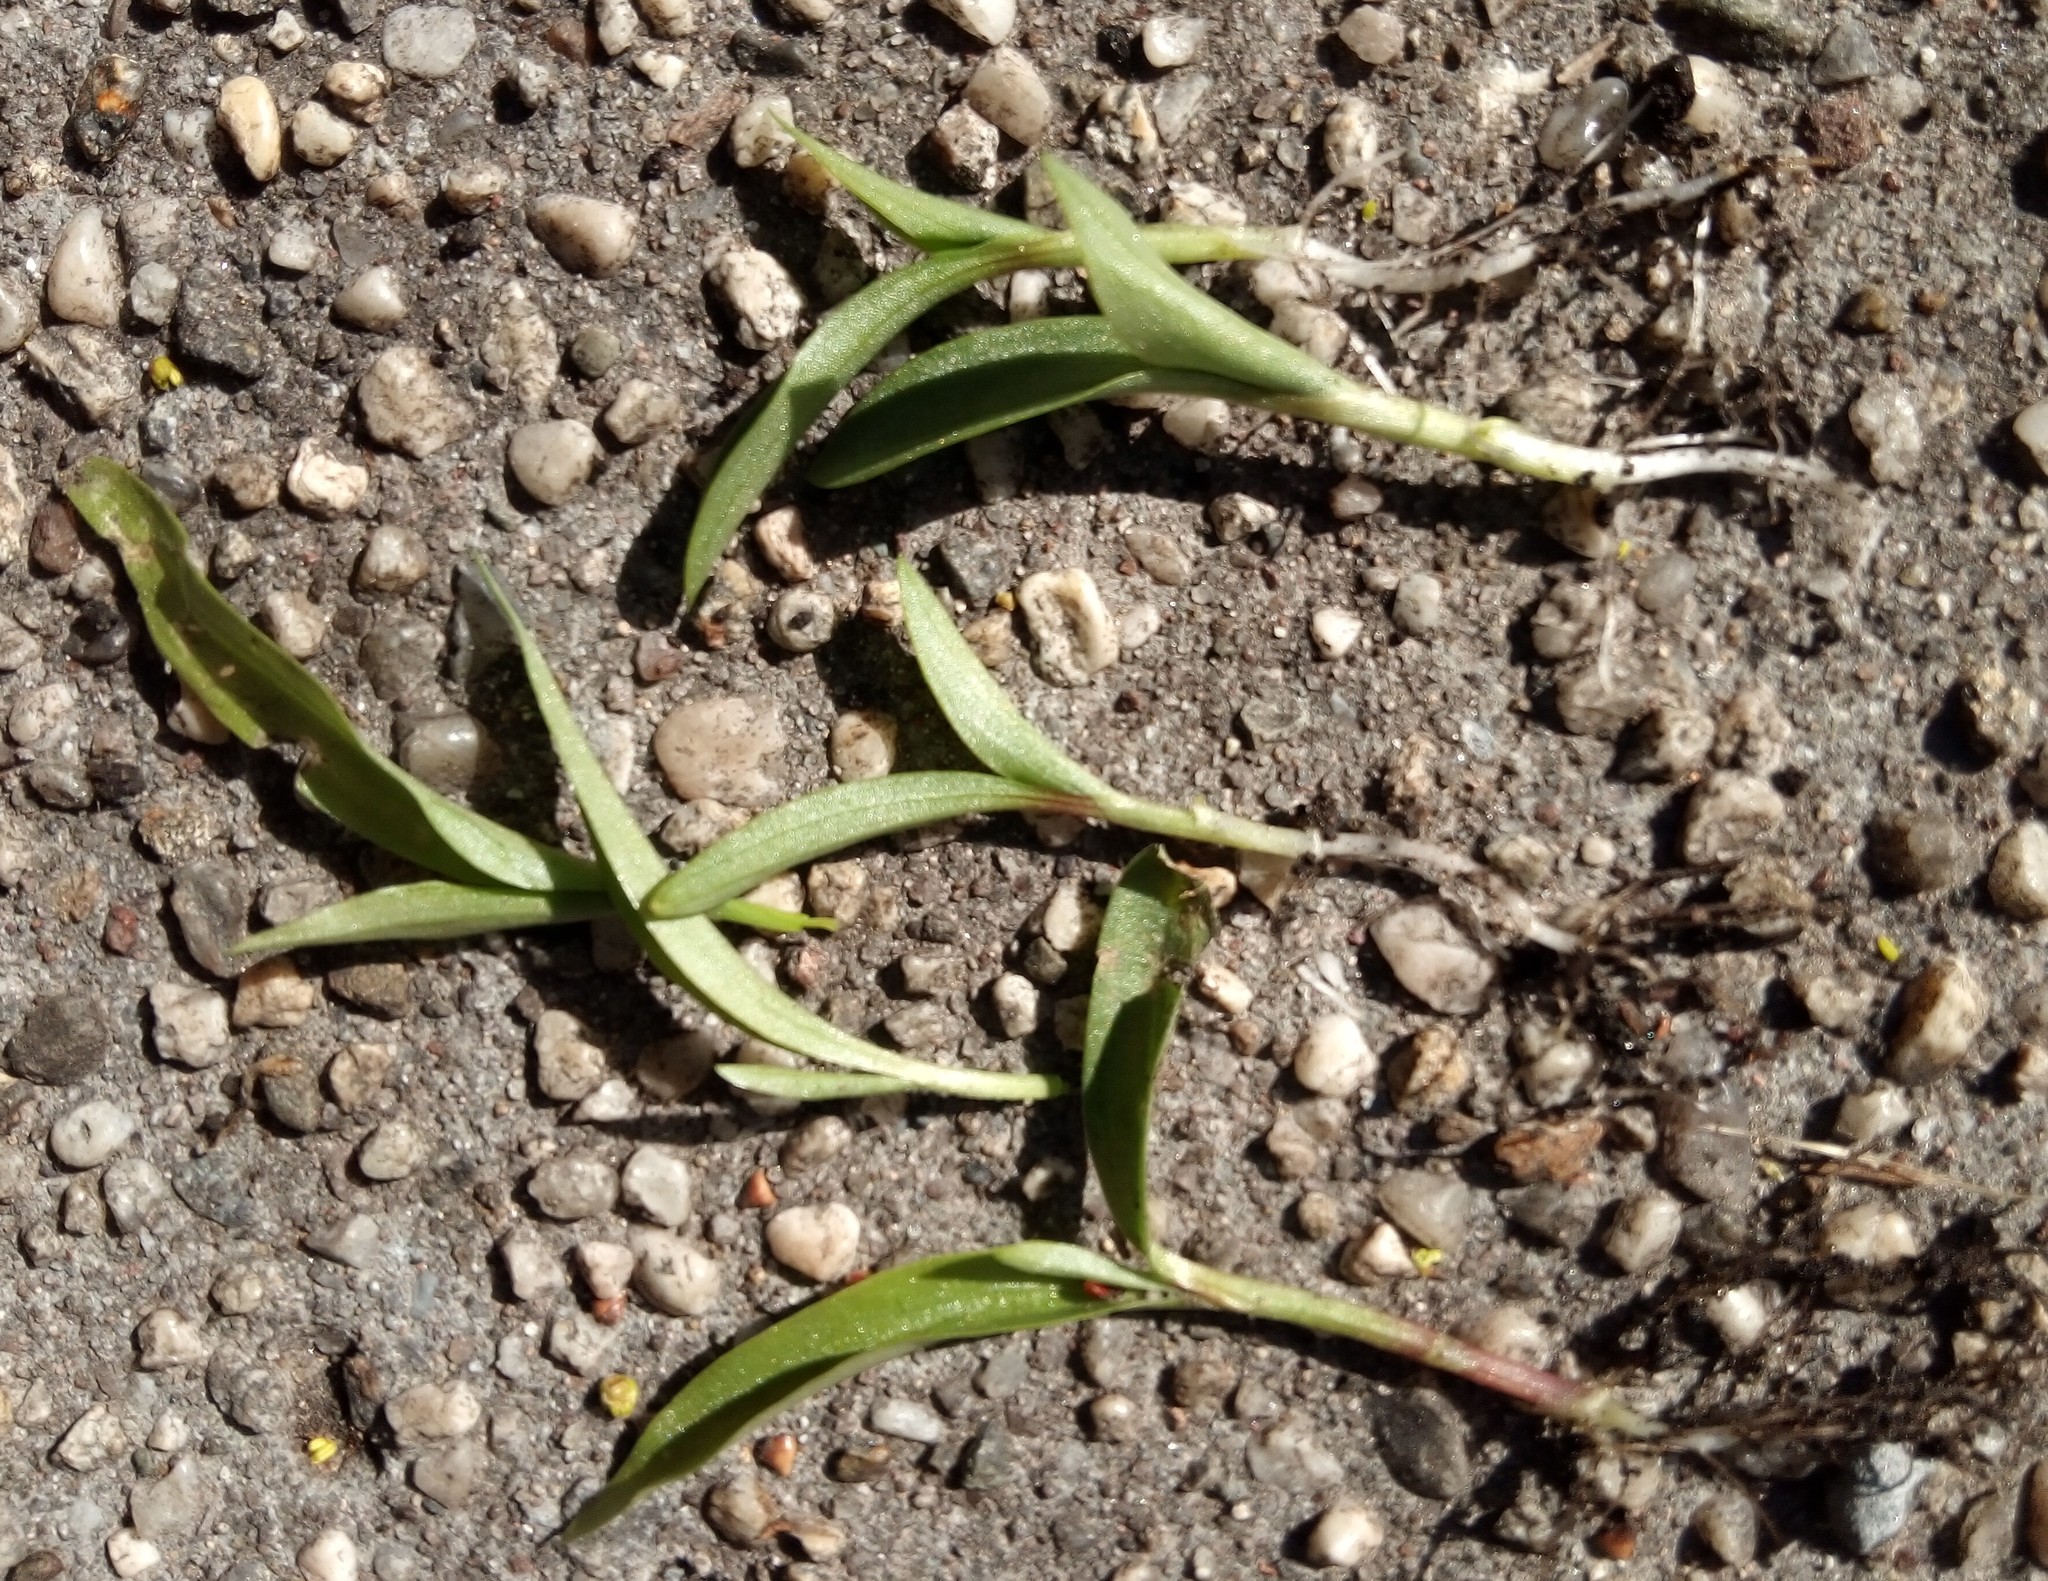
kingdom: Plantae
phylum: Tracheophyta
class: Liliopsida
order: Commelinales
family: Commelinaceae
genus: Commelina
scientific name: Commelina communis
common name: Asiatic dayflower
